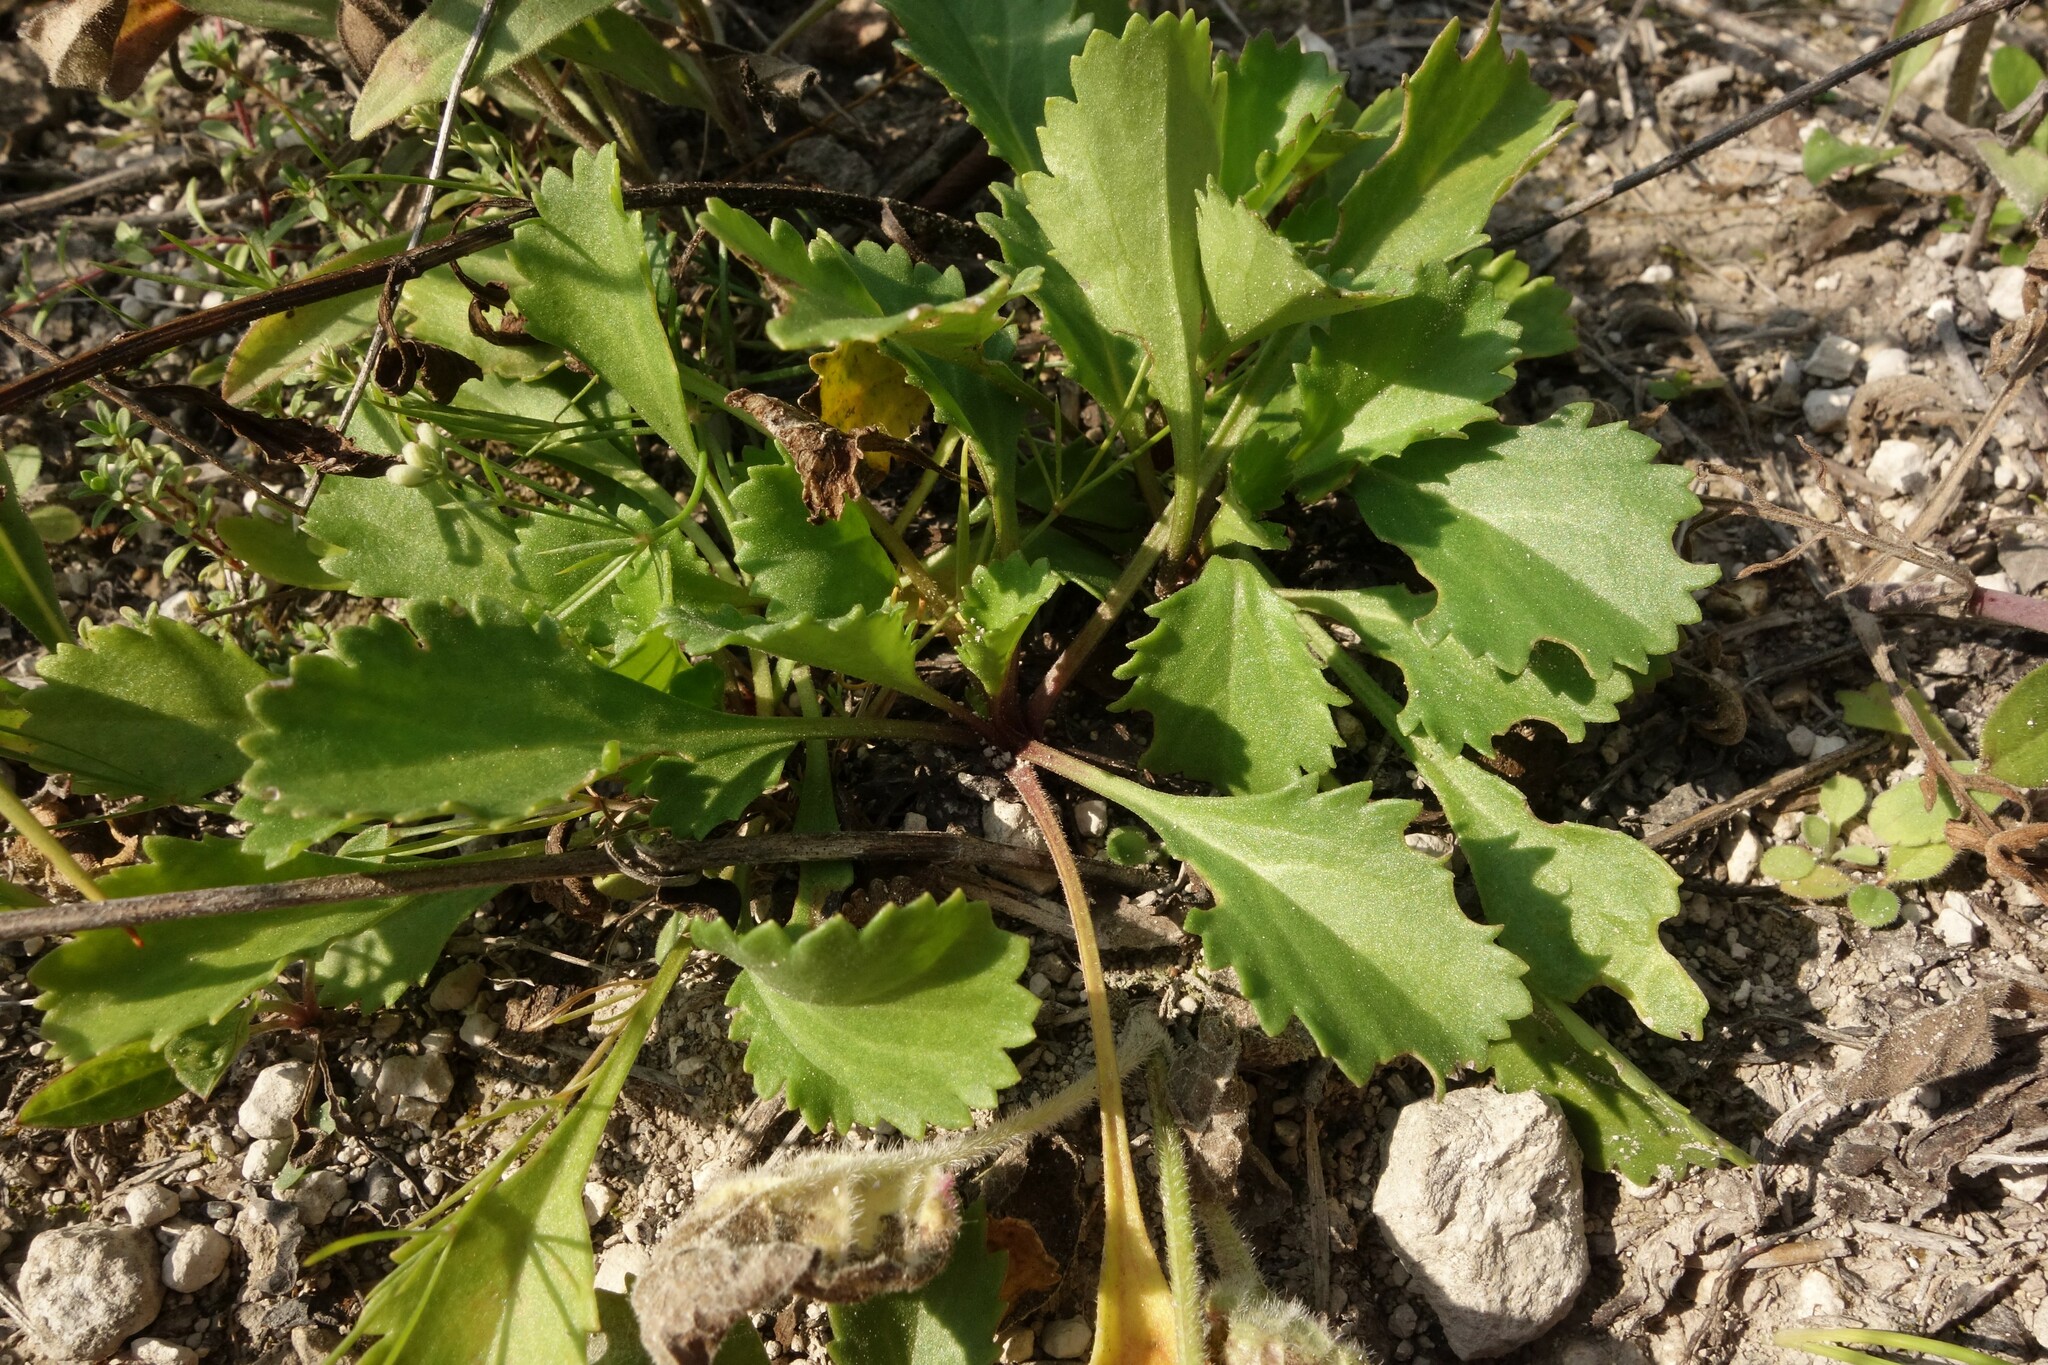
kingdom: Plantae
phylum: Tracheophyta
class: Magnoliopsida
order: Asterales
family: Asteraceae
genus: Leucanthemum
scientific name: Leucanthemum vulgare
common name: Oxeye daisy
